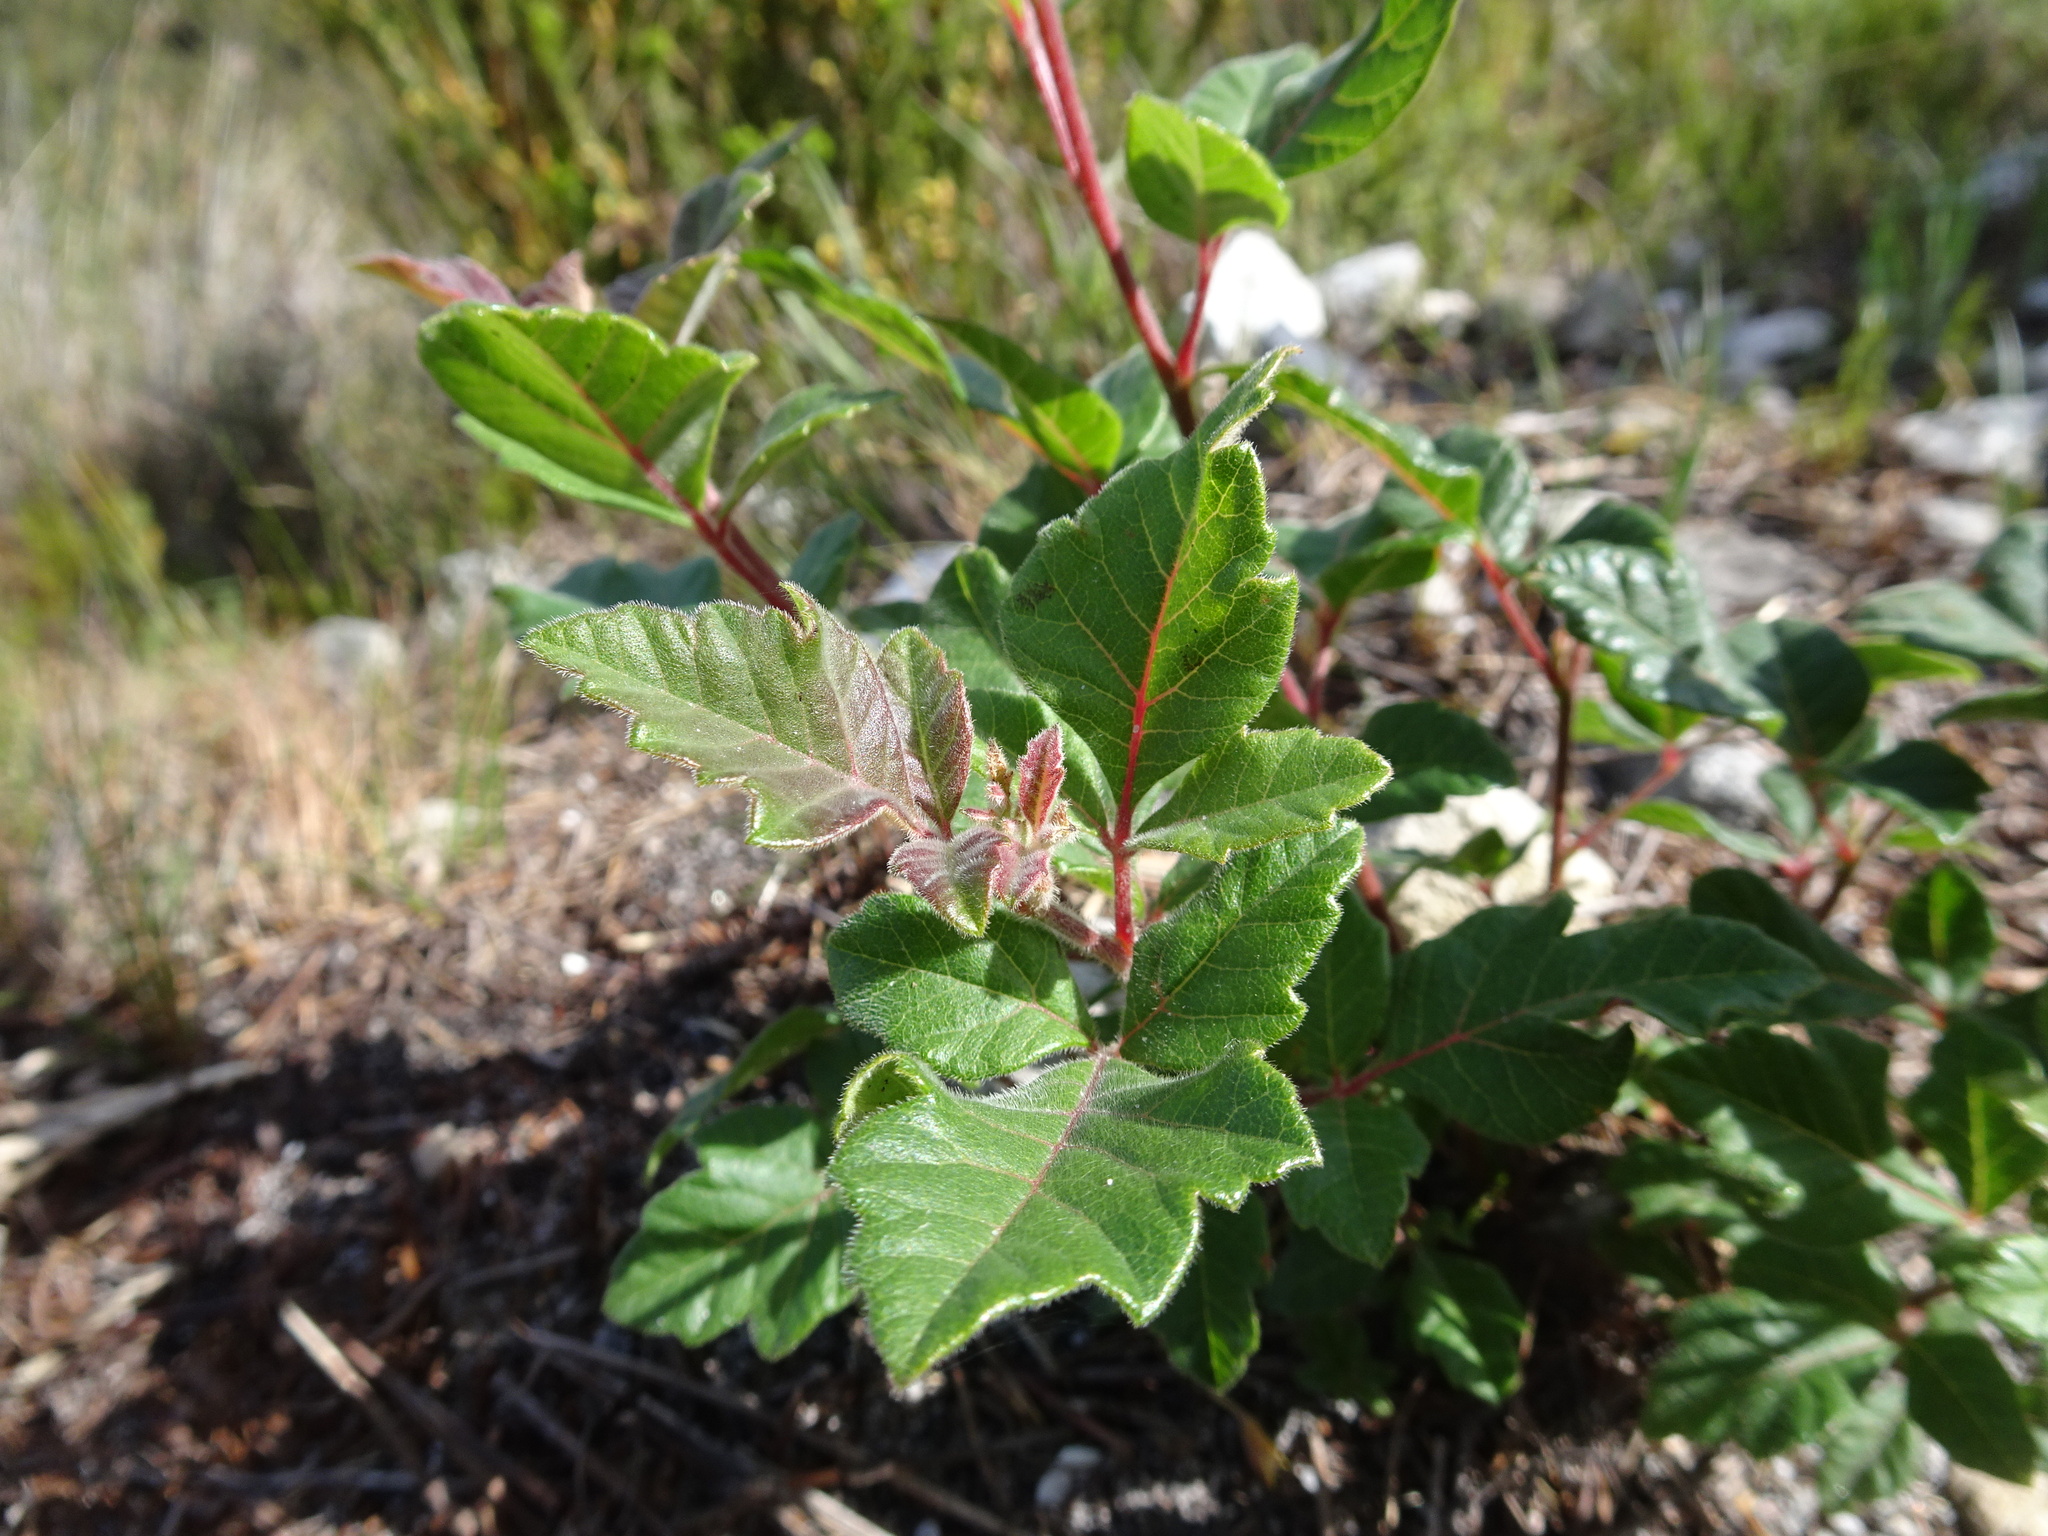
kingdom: Plantae
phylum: Tracheophyta
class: Magnoliopsida
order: Sapindales
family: Anacardiaceae
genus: Searsia
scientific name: Searsia tomentosa
